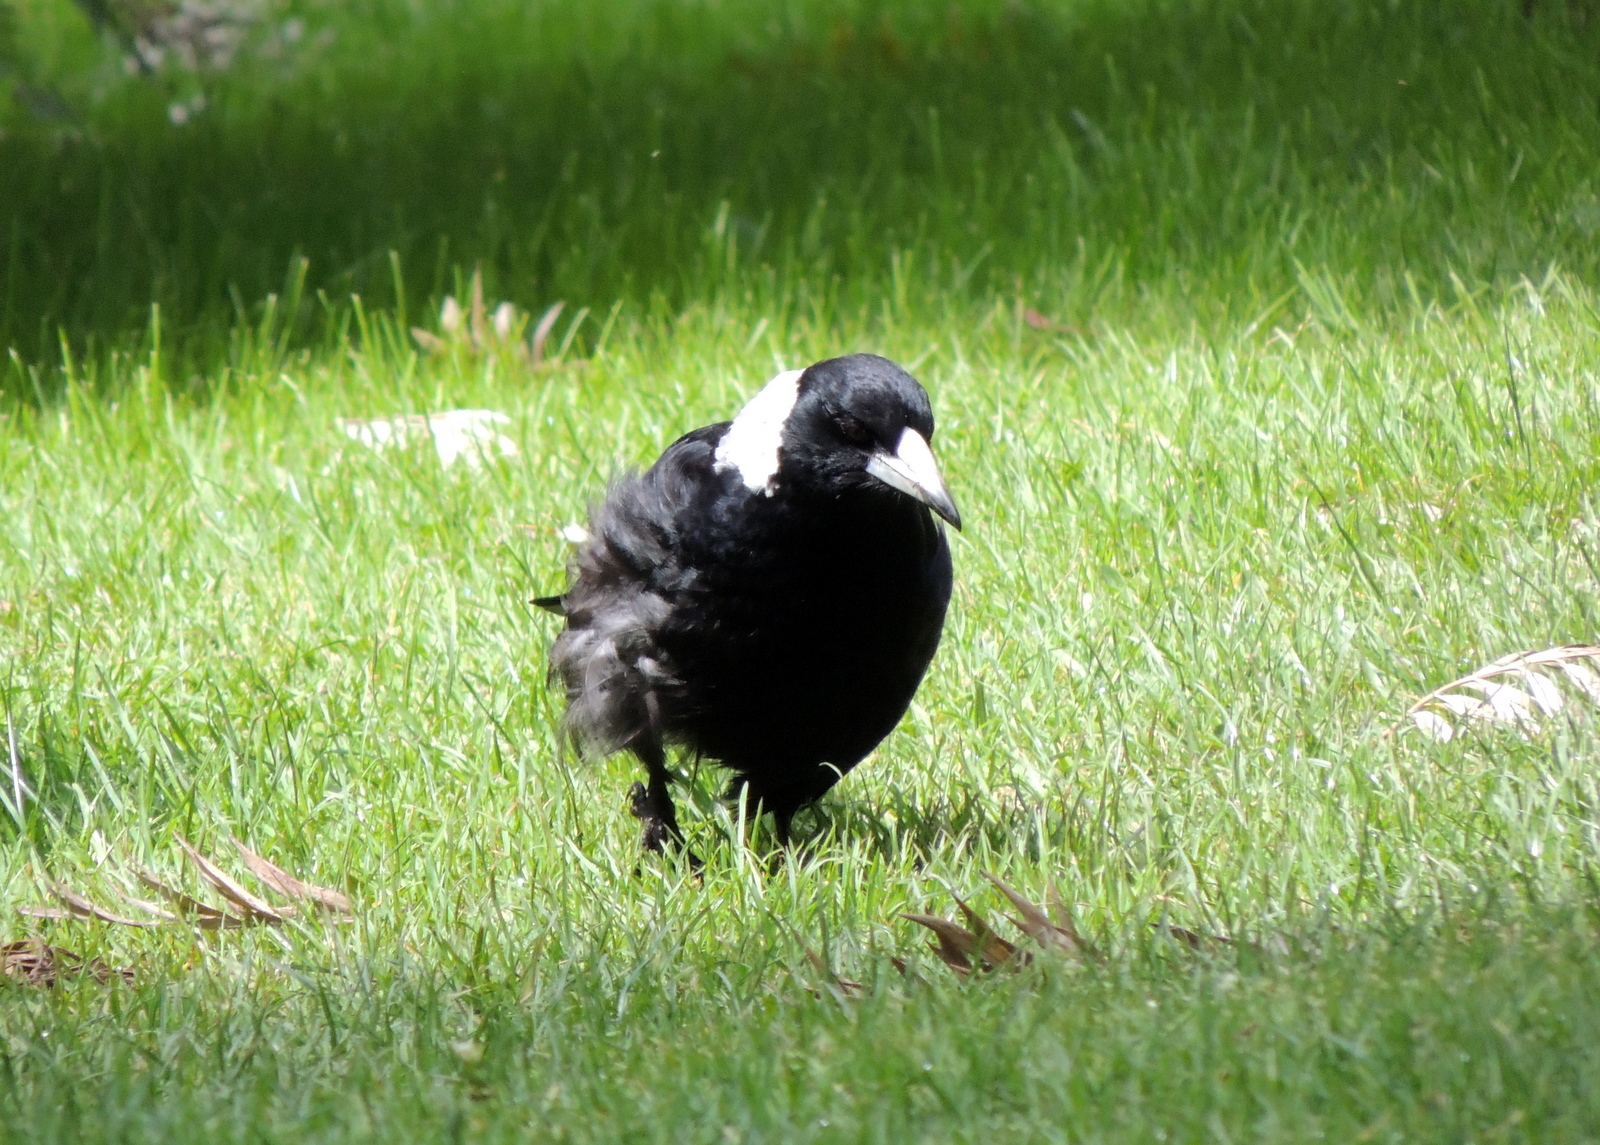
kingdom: Animalia
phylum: Chordata
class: Aves
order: Passeriformes
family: Cracticidae
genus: Gymnorhina
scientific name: Gymnorhina tibicen
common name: Australian magpie
